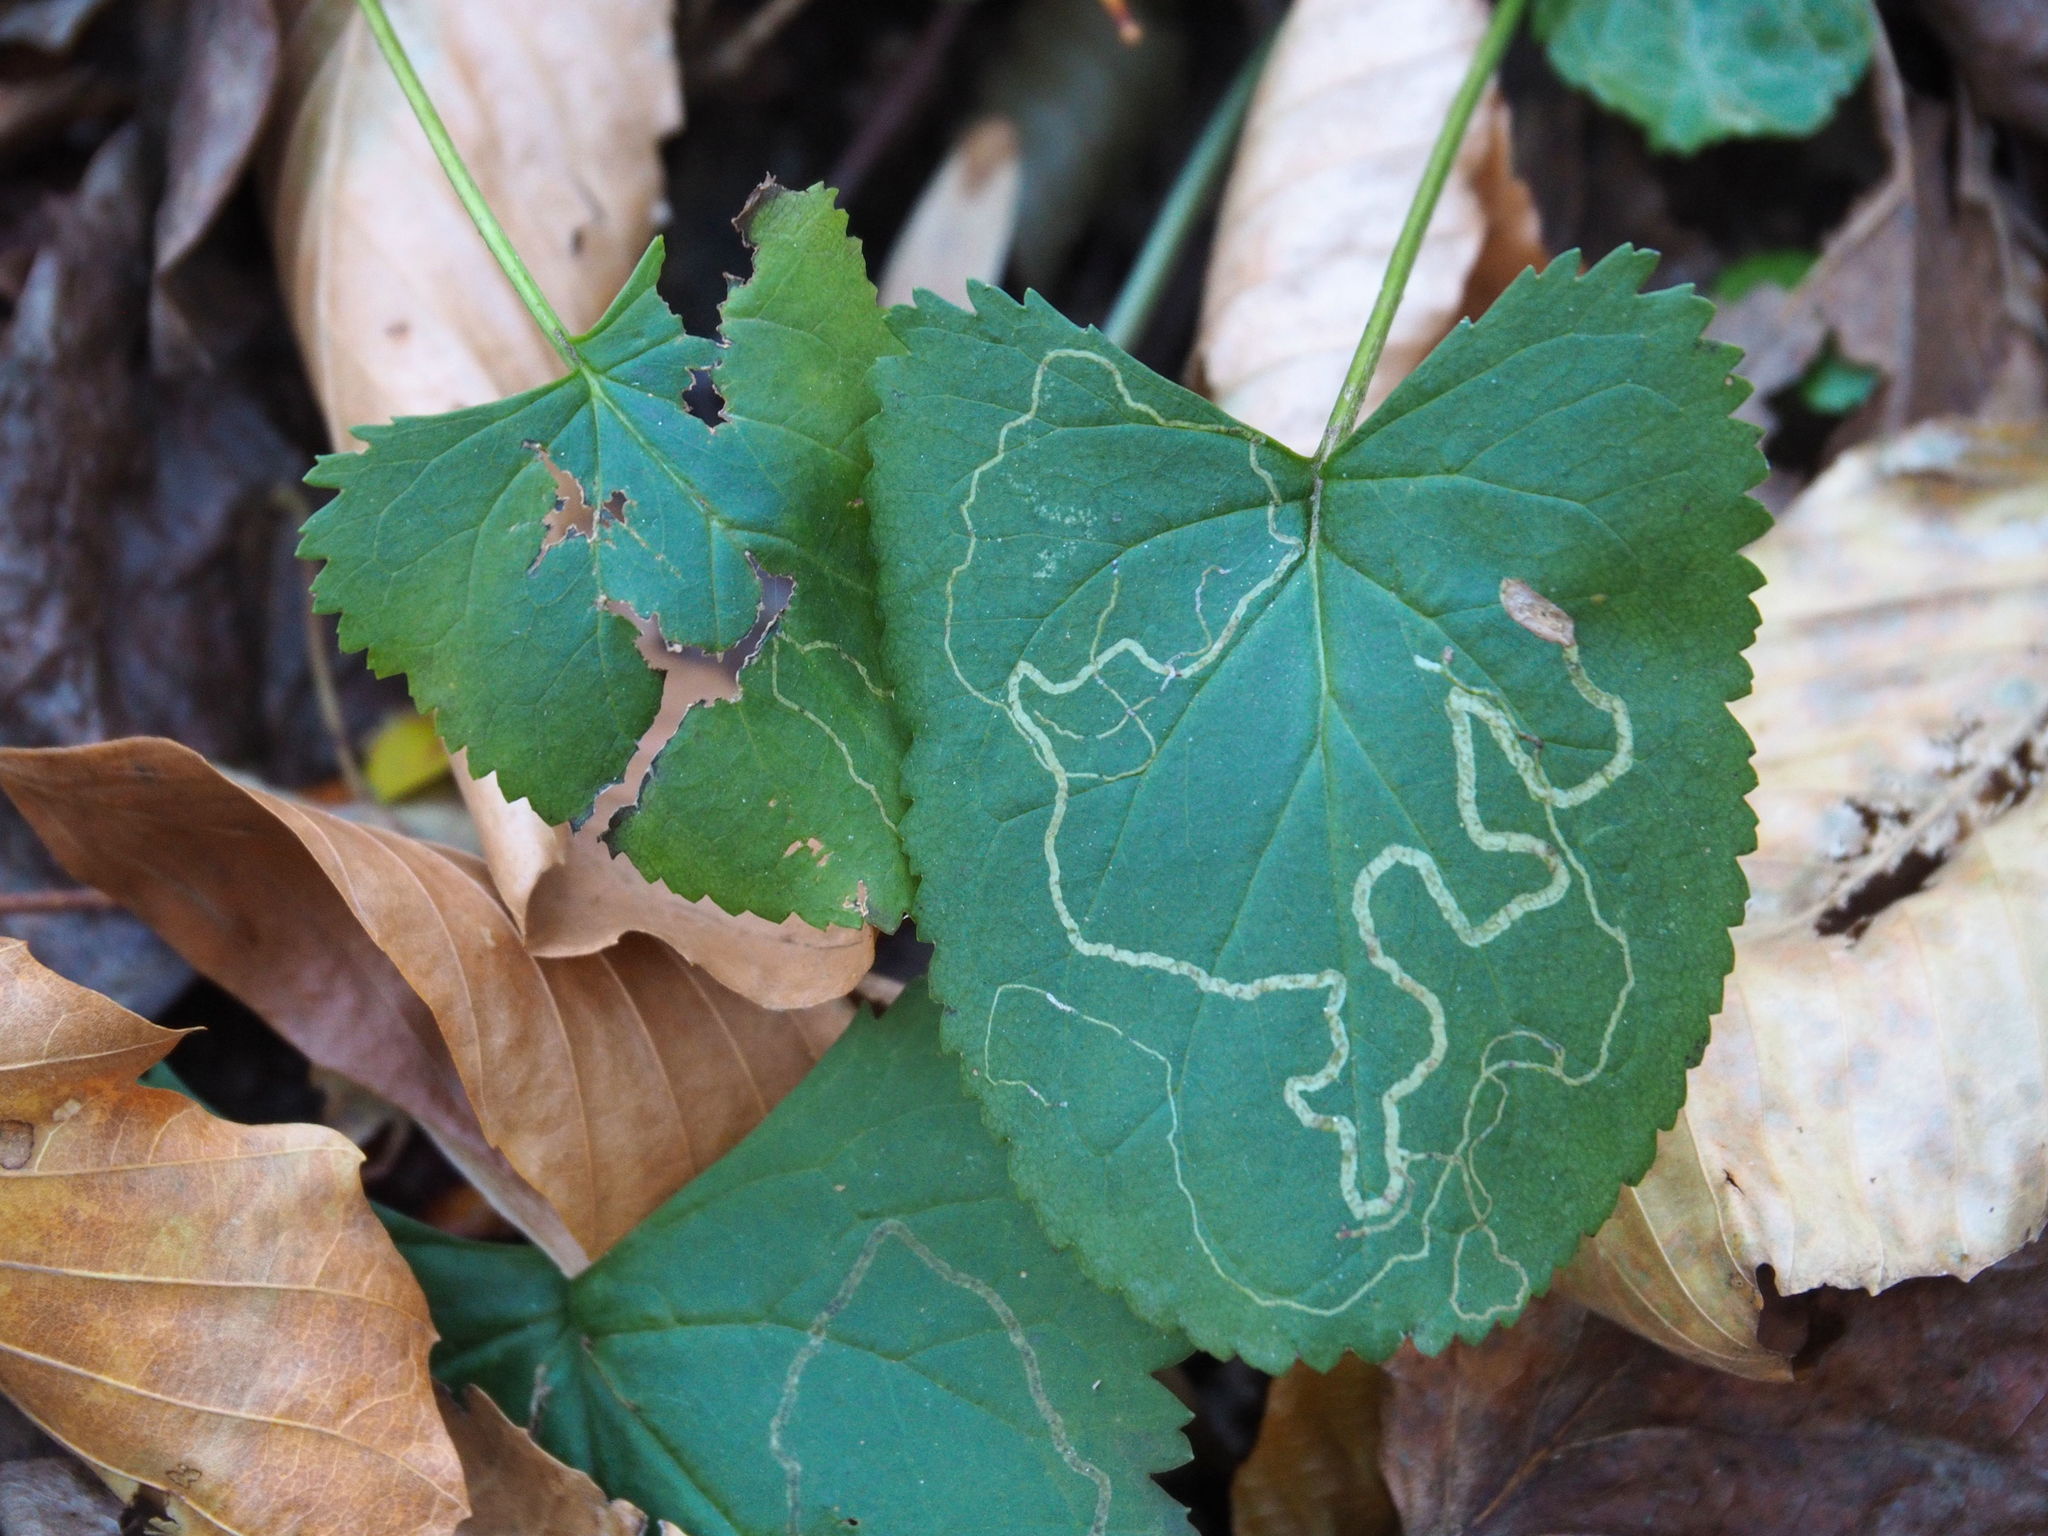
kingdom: Animalia
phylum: Arthropoda
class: Insecta
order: Lepidoptera
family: Gracillariidae
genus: Phyllocnistis
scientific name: Phyllocnistis insignis
